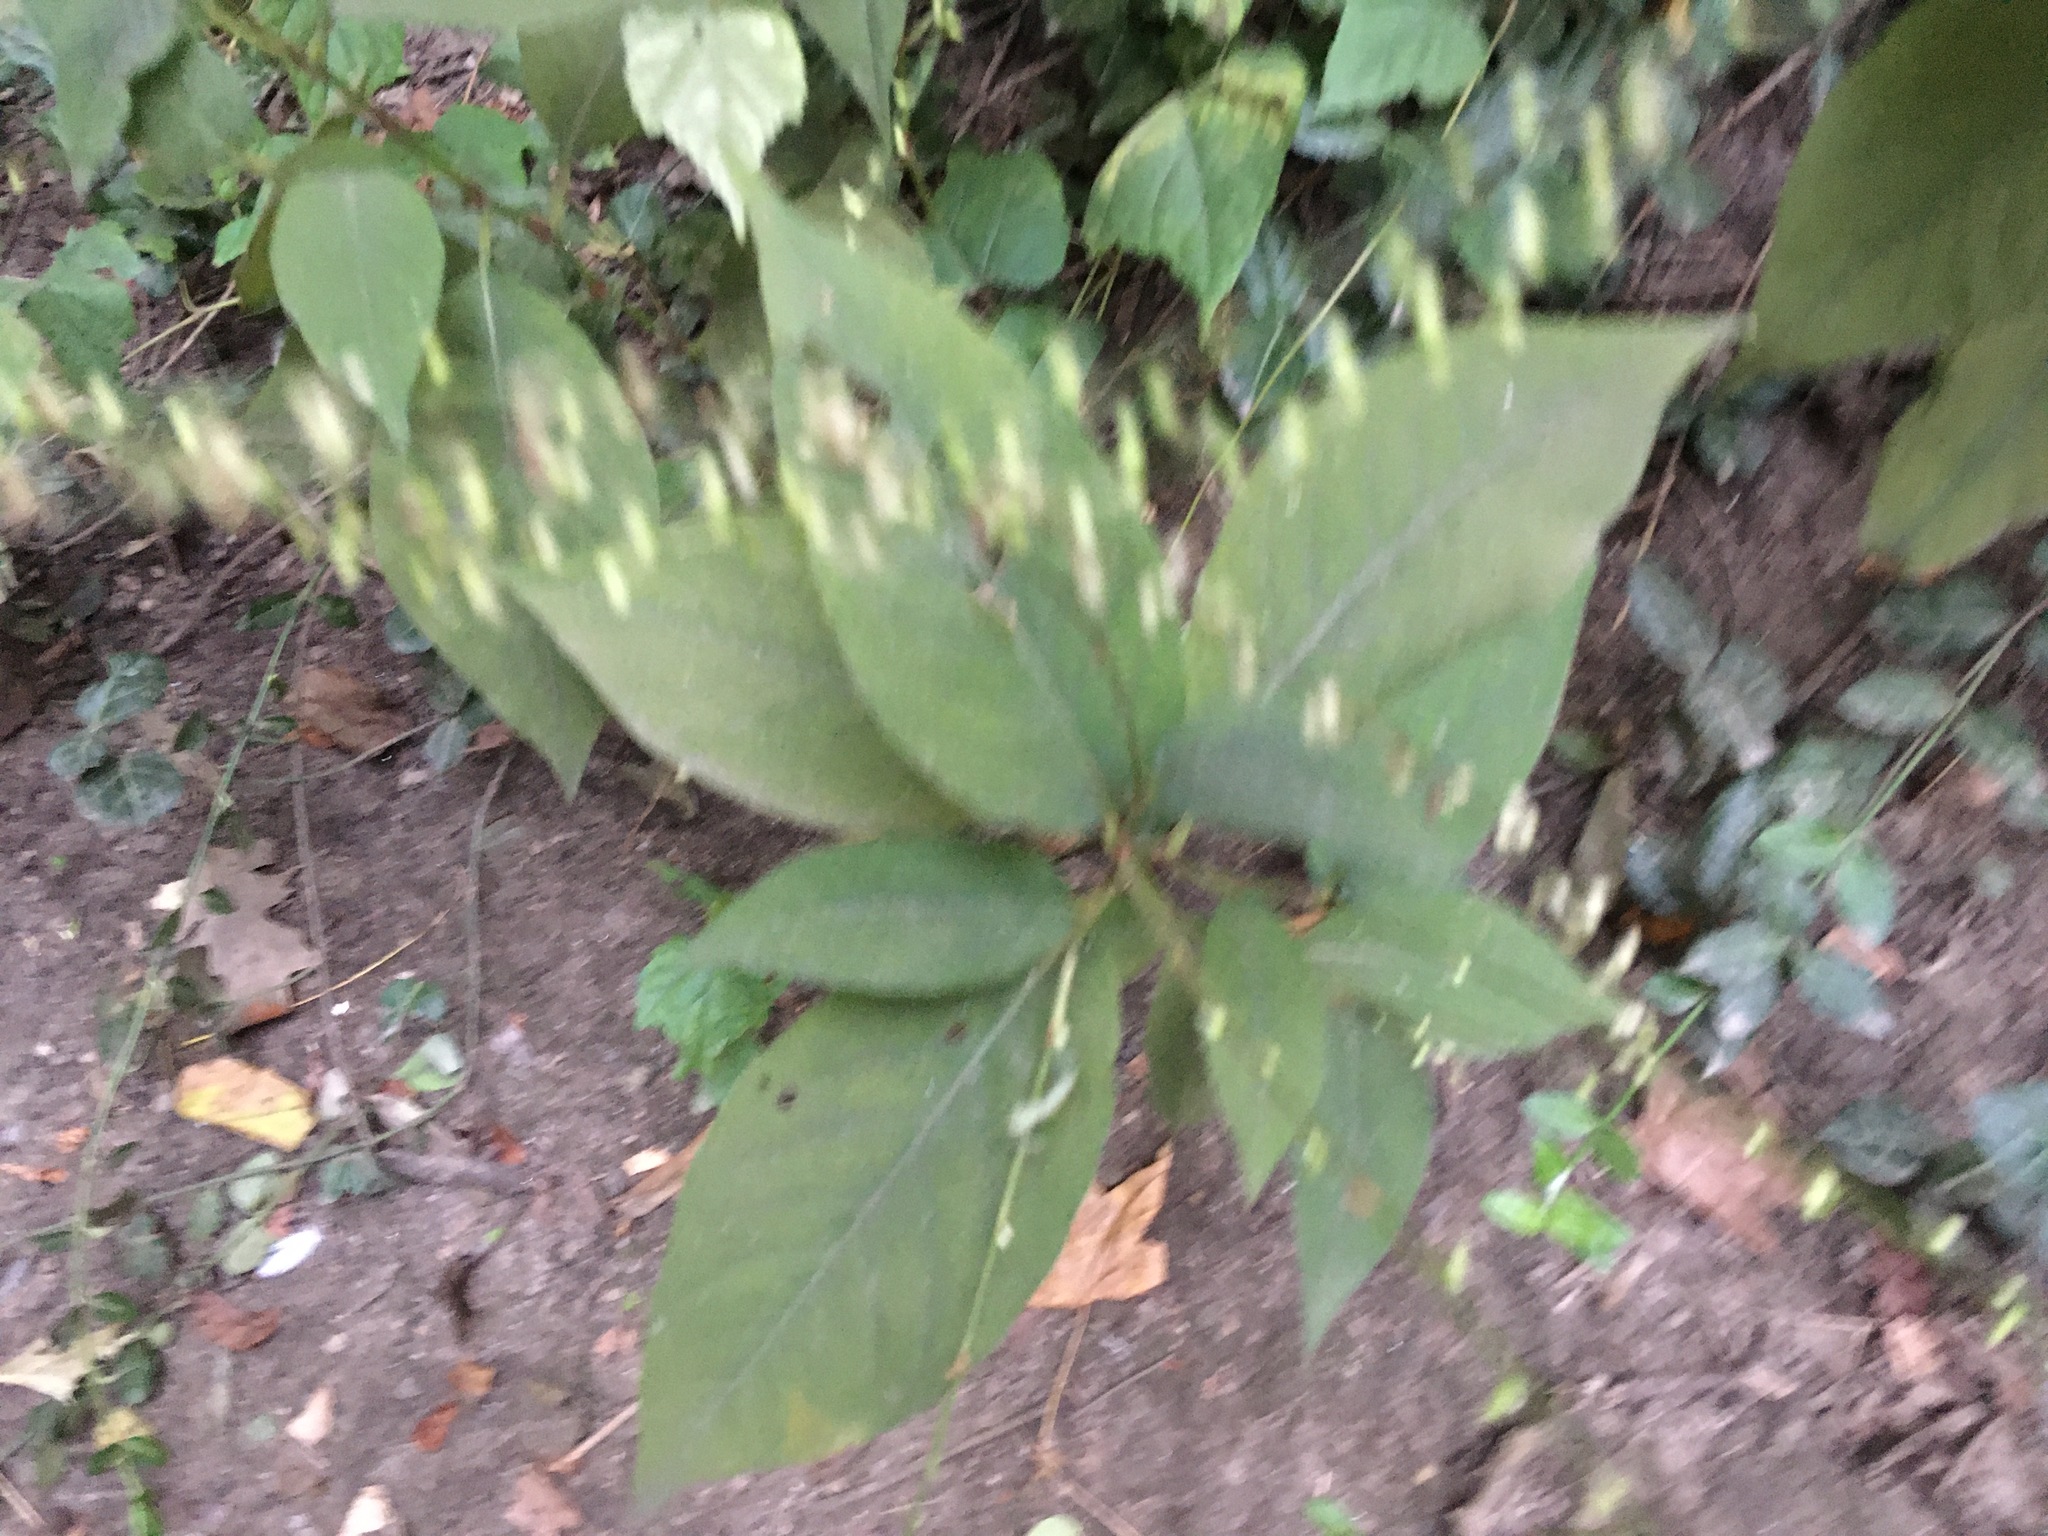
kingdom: Plantae
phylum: Tracheophyta
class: Magnoliopsida
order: Caryophyllales
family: Polygonaceae
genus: Persicaria
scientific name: Persicaria virginiana
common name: Jumpseed
